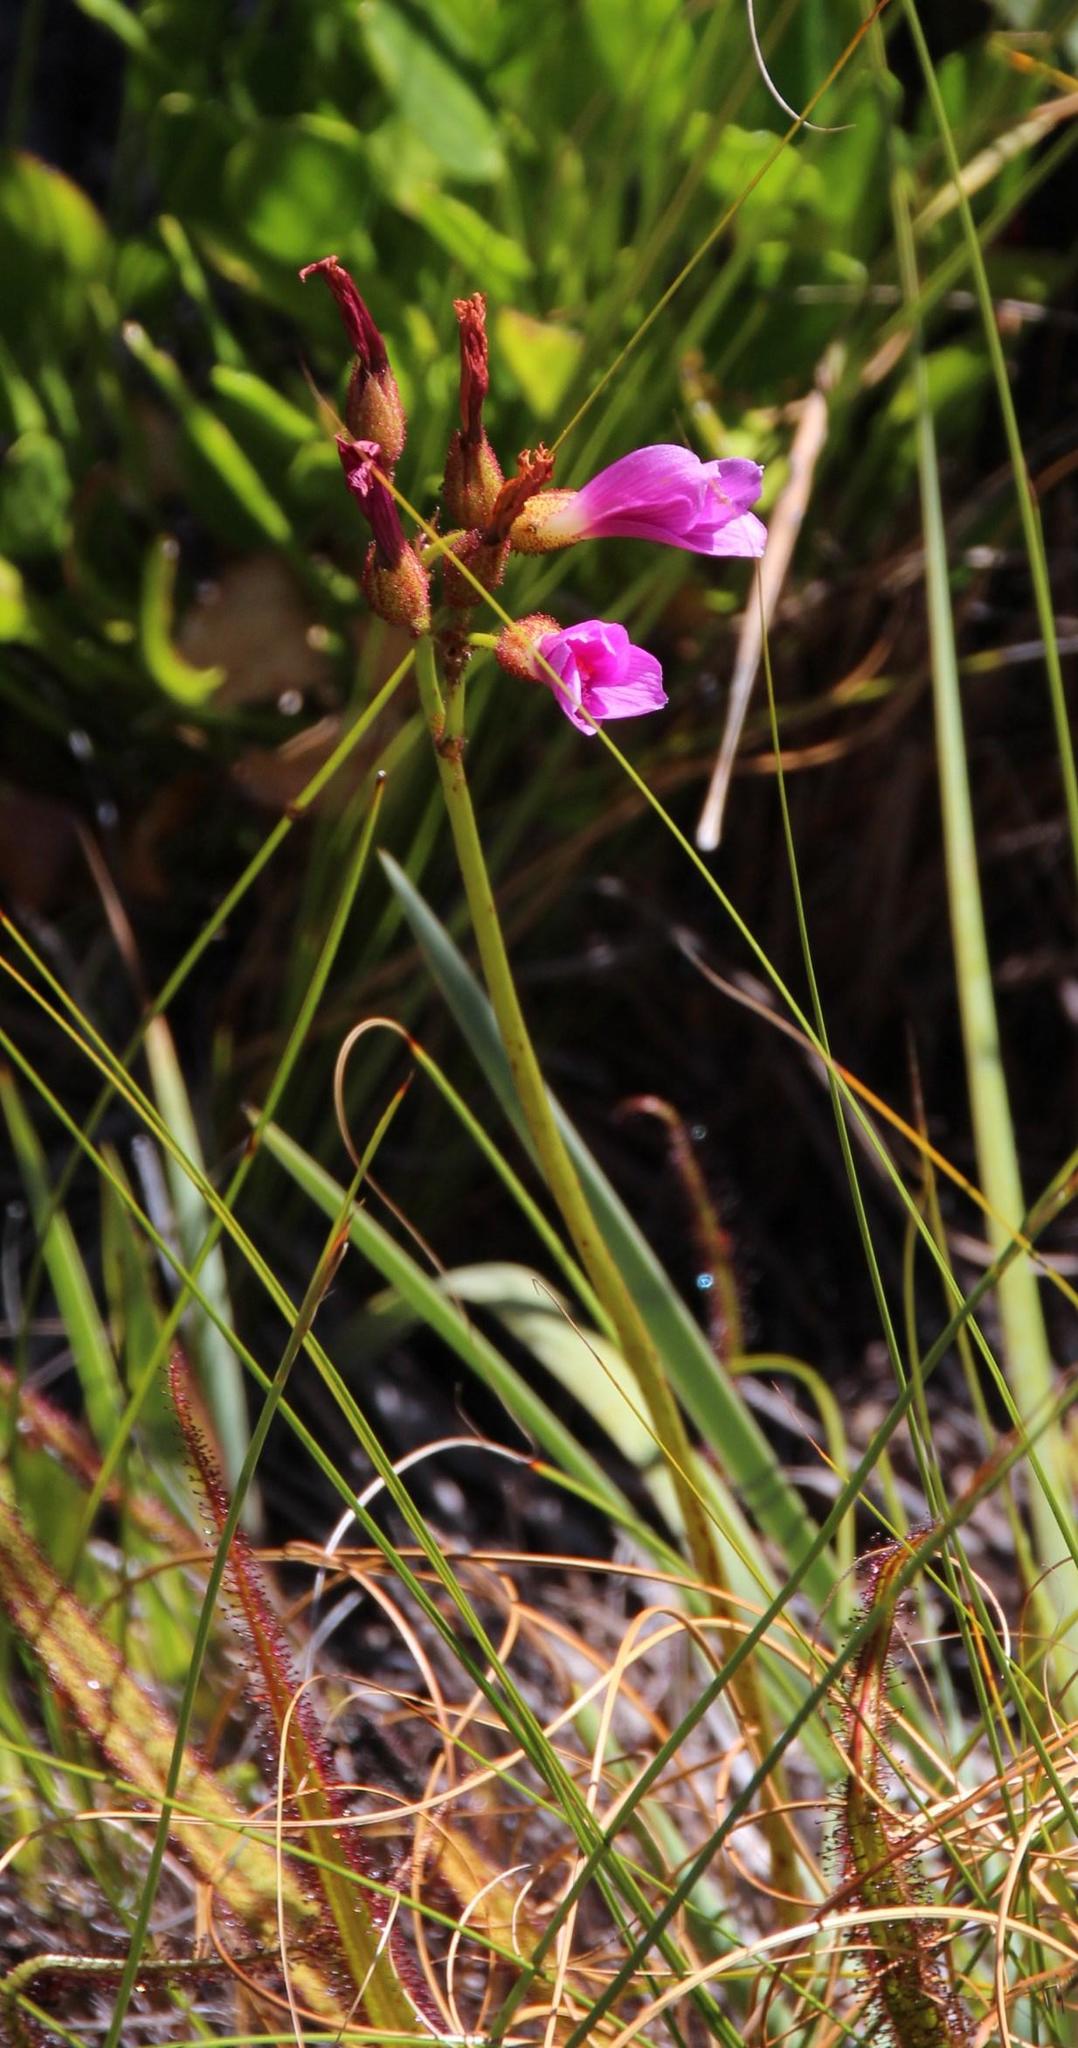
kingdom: Plantae
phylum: Tracheophyta
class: Magnoliopsida
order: Caryophyllales
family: Droseraceae
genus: Drosera
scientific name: Drosera regia
